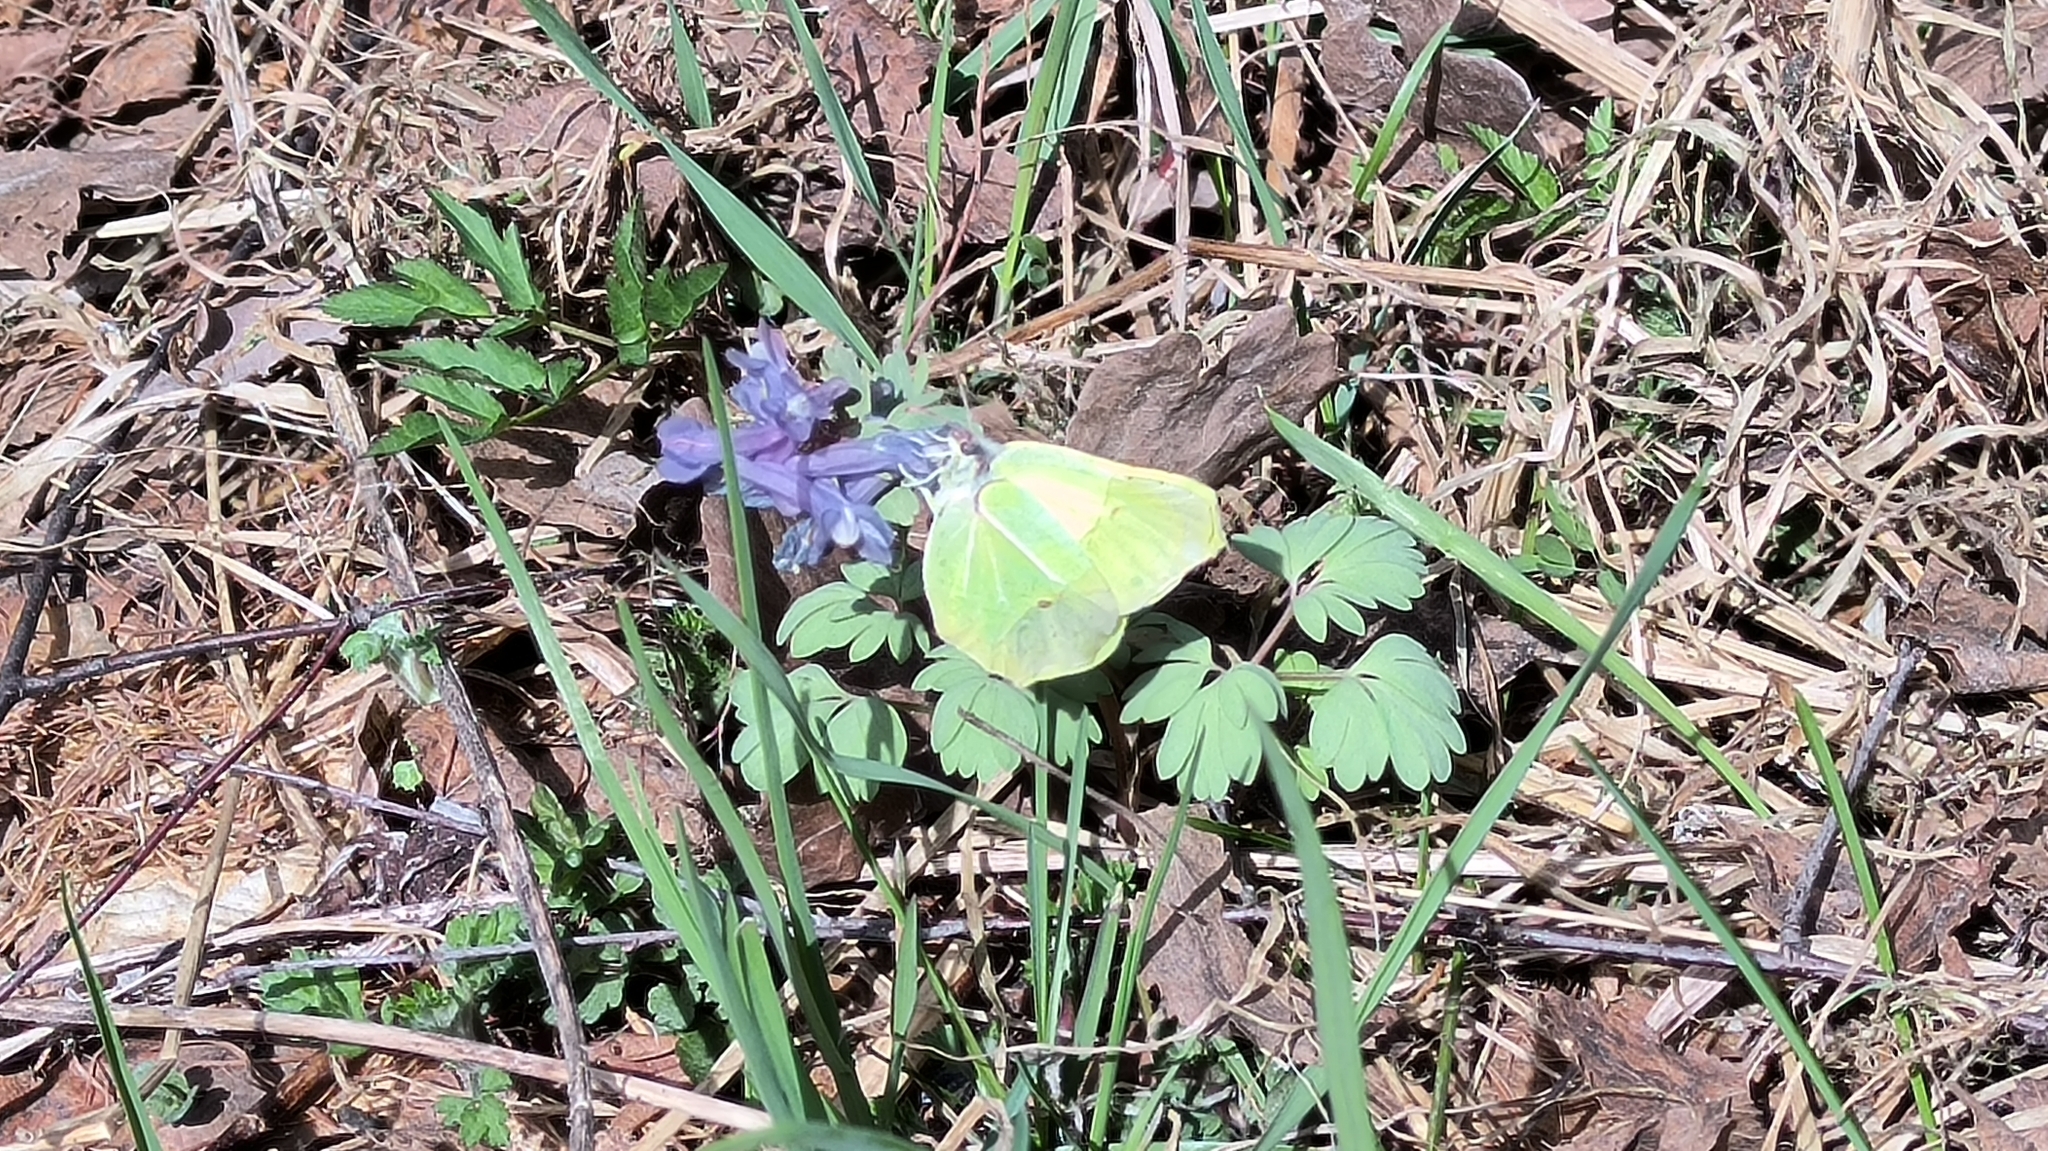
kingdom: Animalia
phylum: Arthropoda
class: Insecta
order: Lepidoptera
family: Pieridae
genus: Gonepteryx
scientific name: Gonepteryx rhamni
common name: Brimstone
